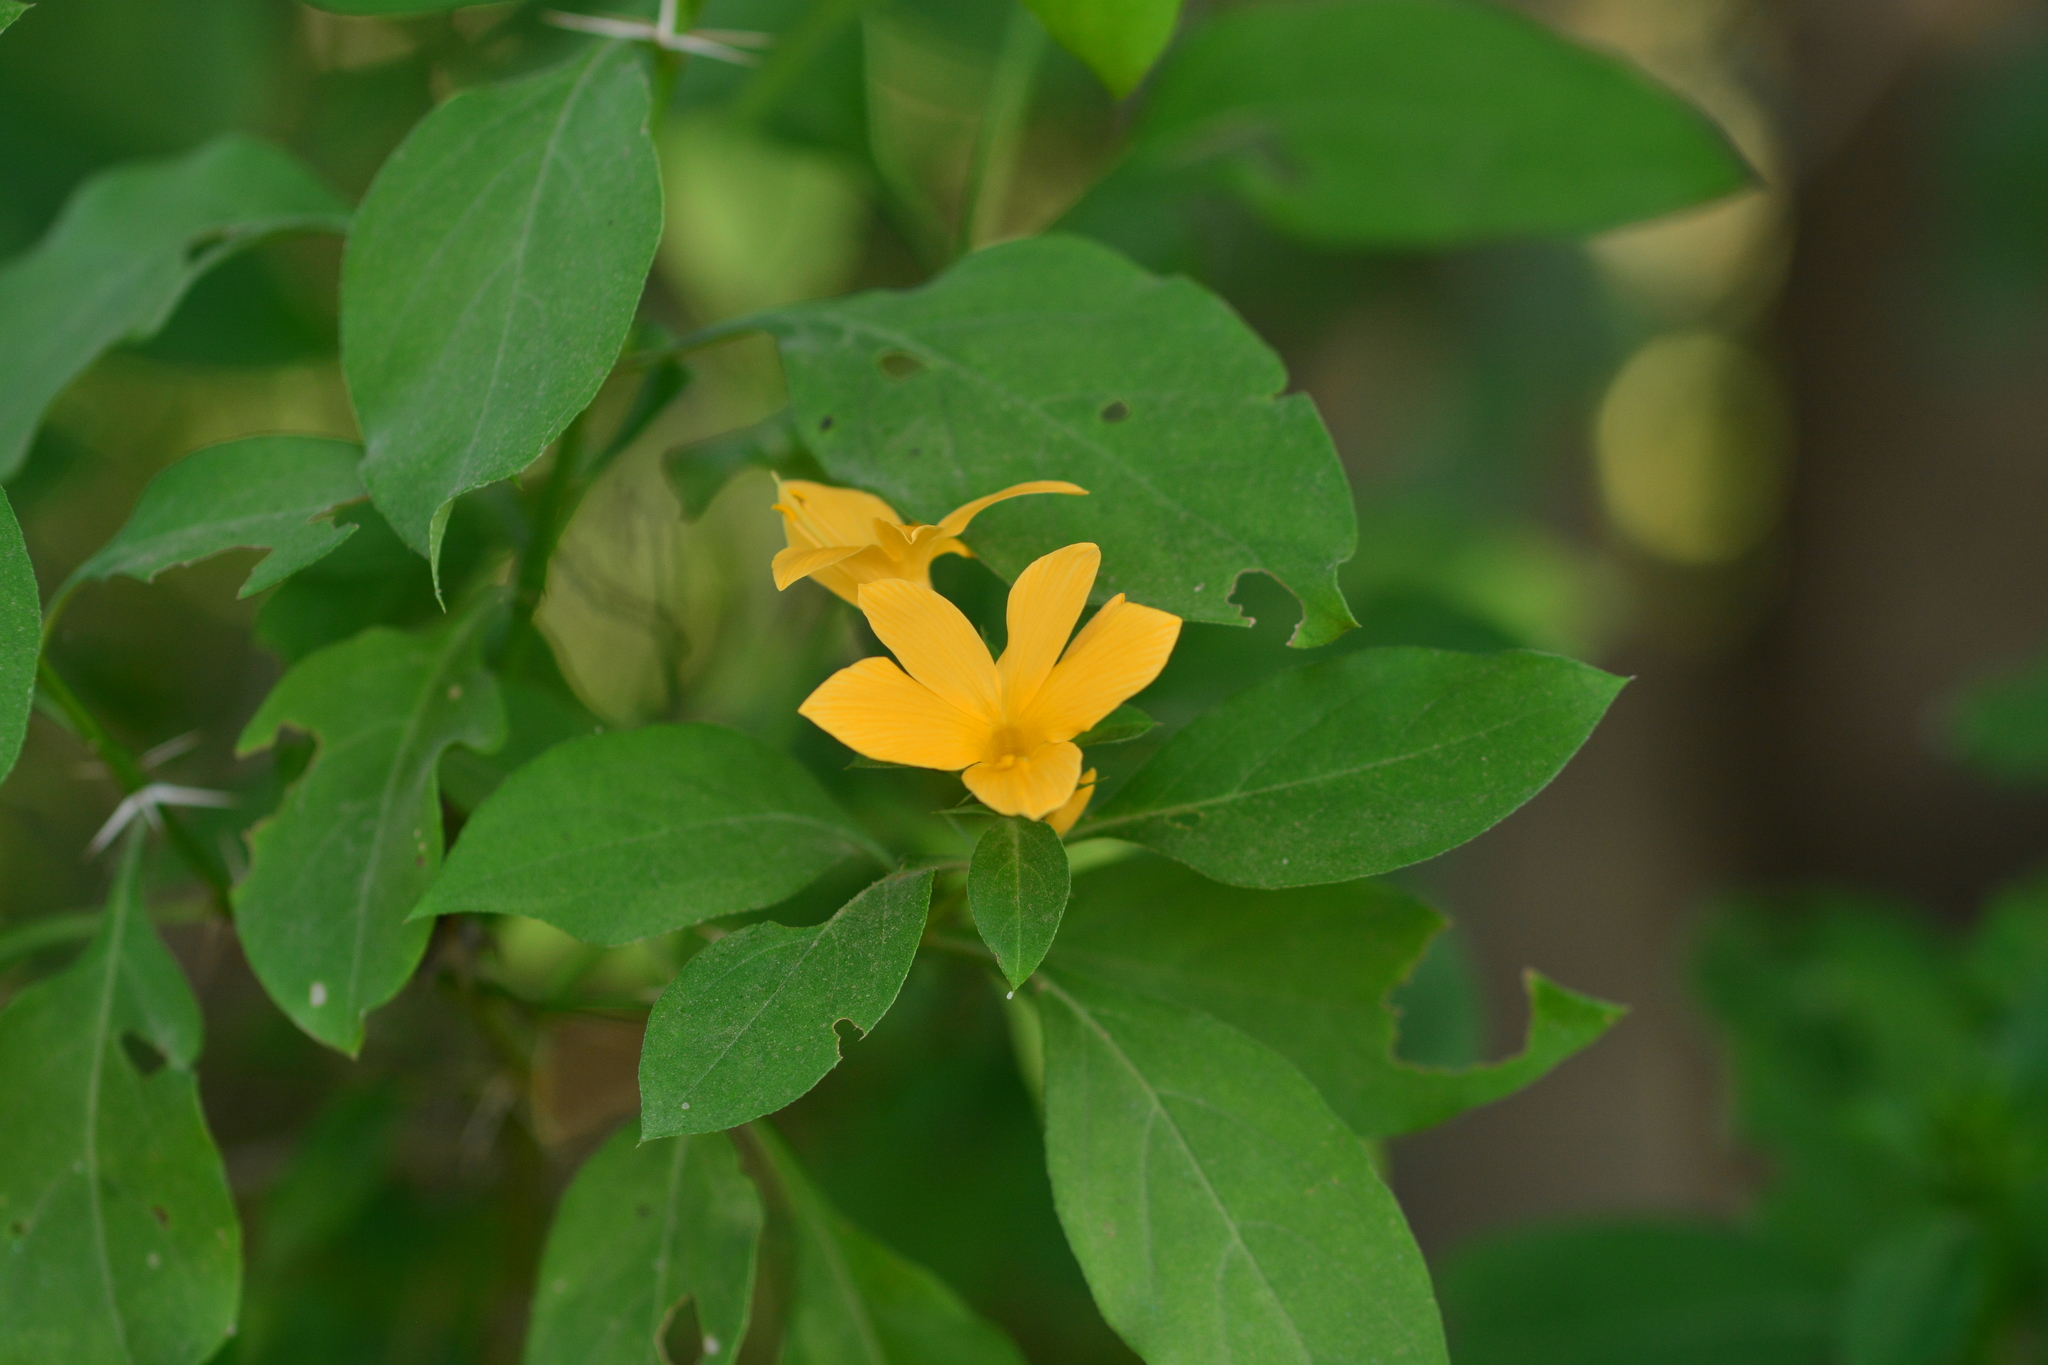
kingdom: Plantae
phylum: Tracheophyta
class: Magnoliopsida
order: Lamiales
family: Acanthaceae
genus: Barleria
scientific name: Barleria prionitis
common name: Barleria
